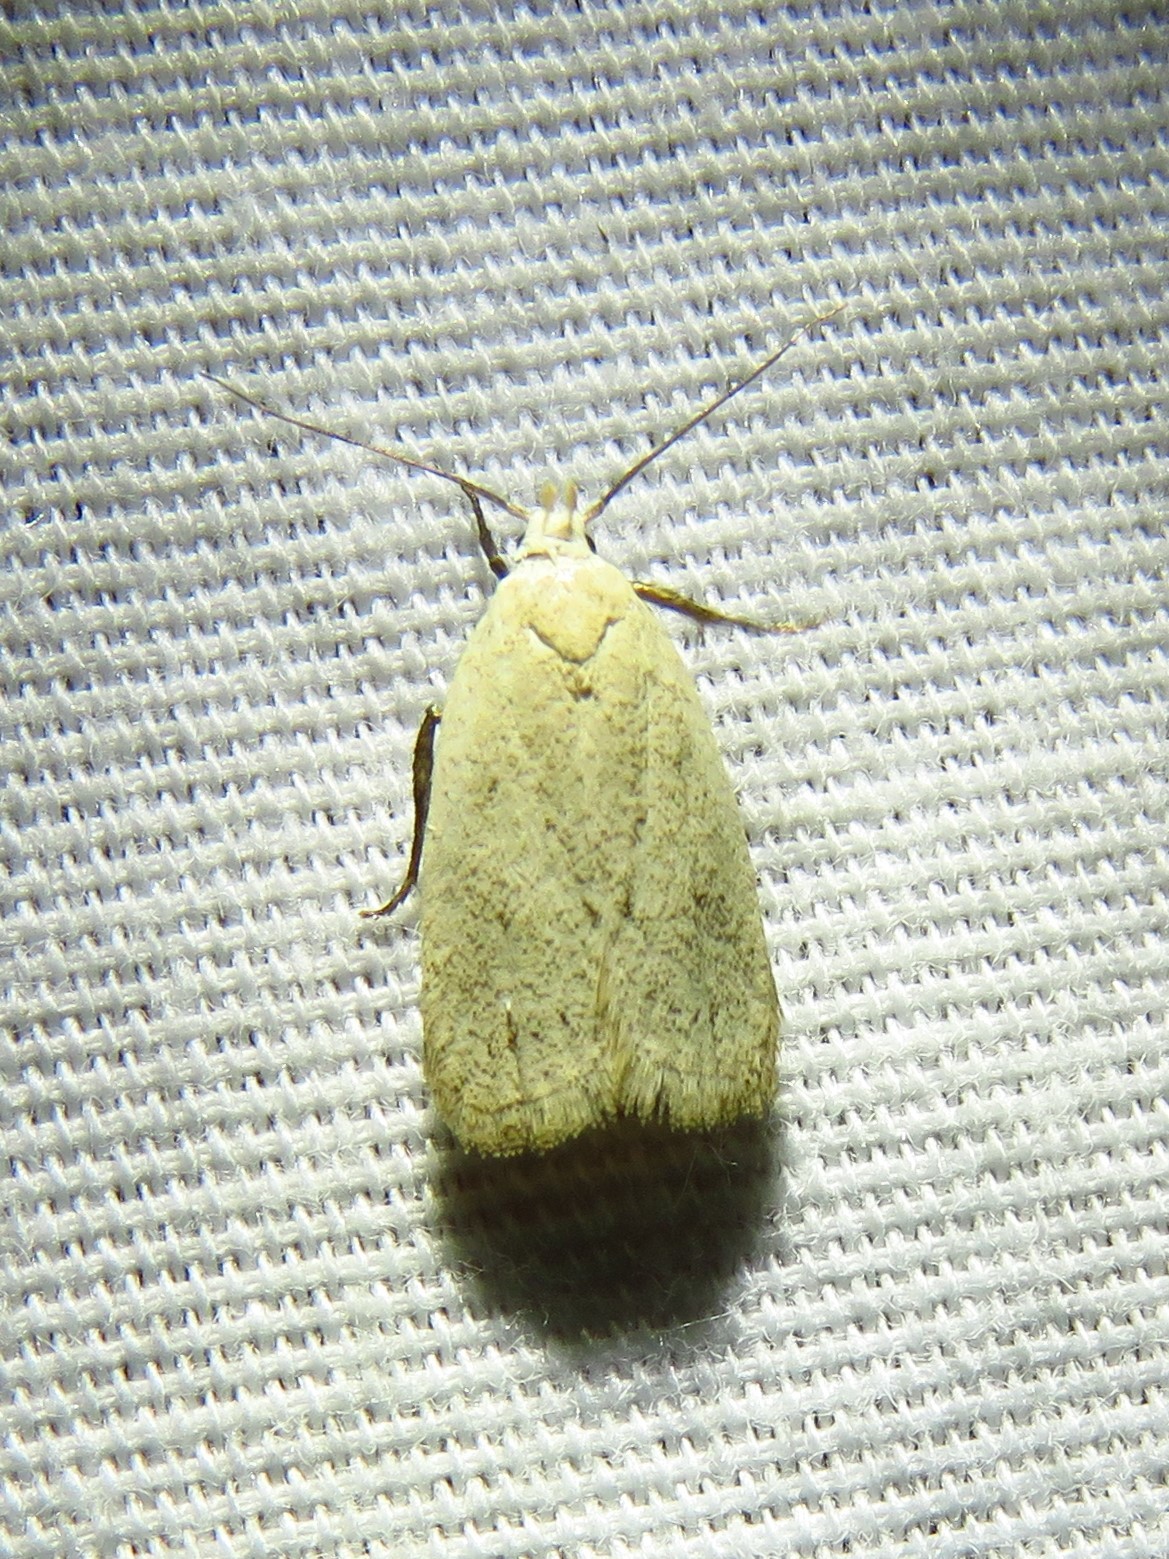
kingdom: Animalia
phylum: Arthropoda
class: Insecta
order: Lepidoptera
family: Oecophoridae
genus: Inga
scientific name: Inga cretacea
